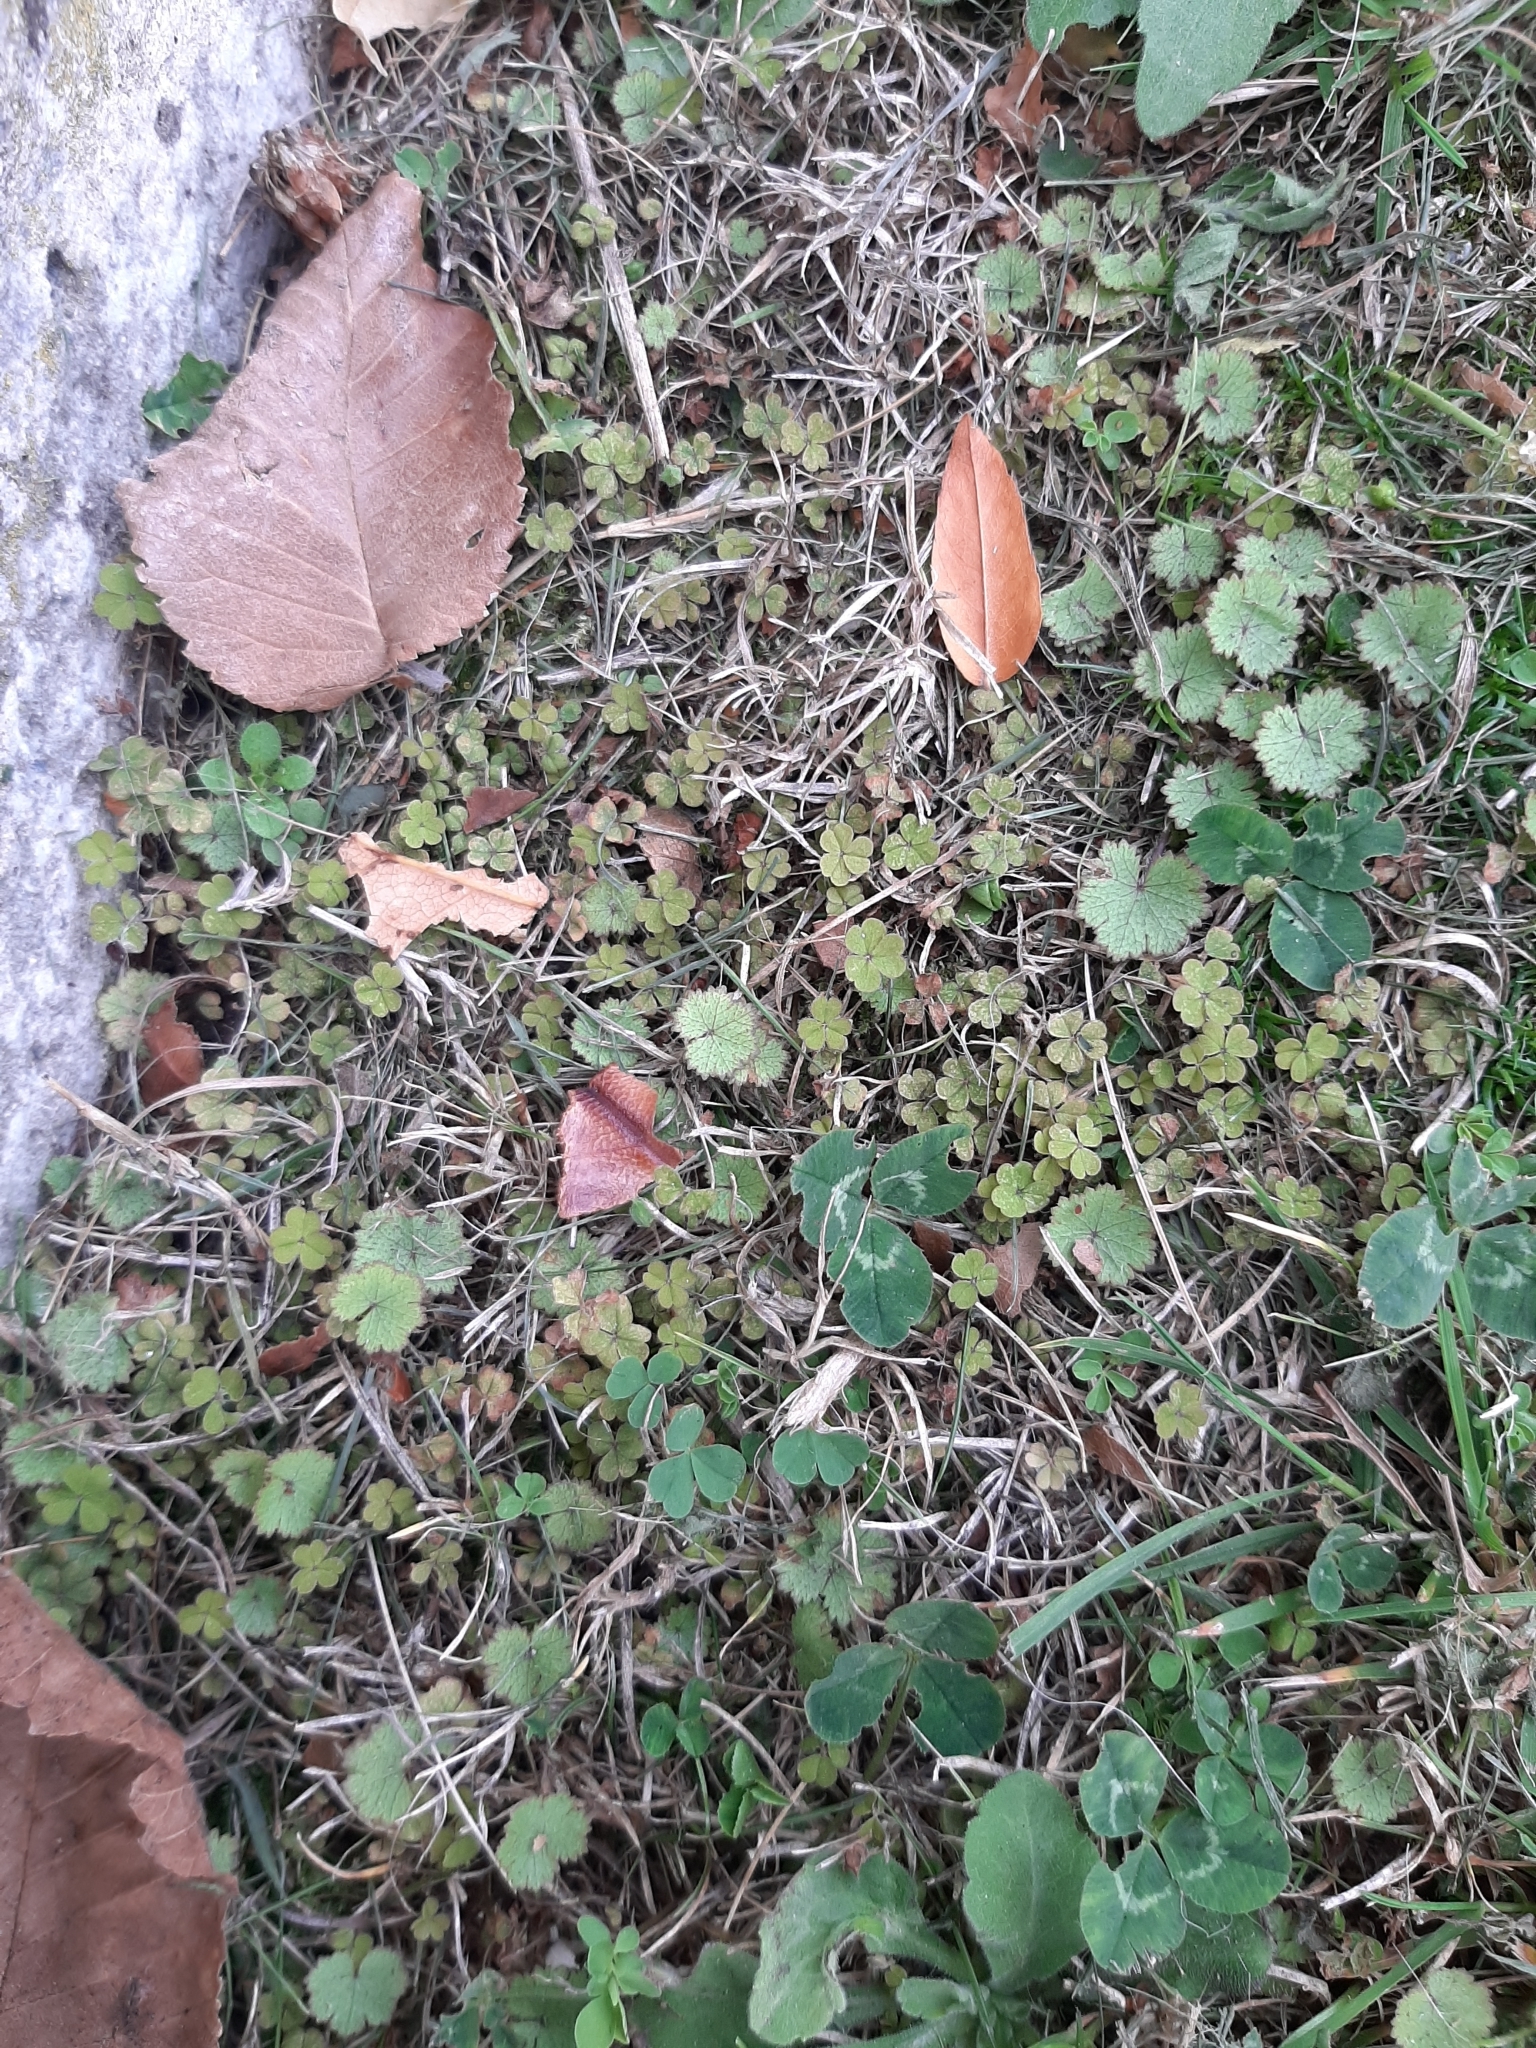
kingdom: Plantae
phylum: Tracheophyta
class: Magnoliopsida
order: Apiales
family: Araliaceae
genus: Hydrocotyle
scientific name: Hydrocotyle moschata
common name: Hairy pennywort
